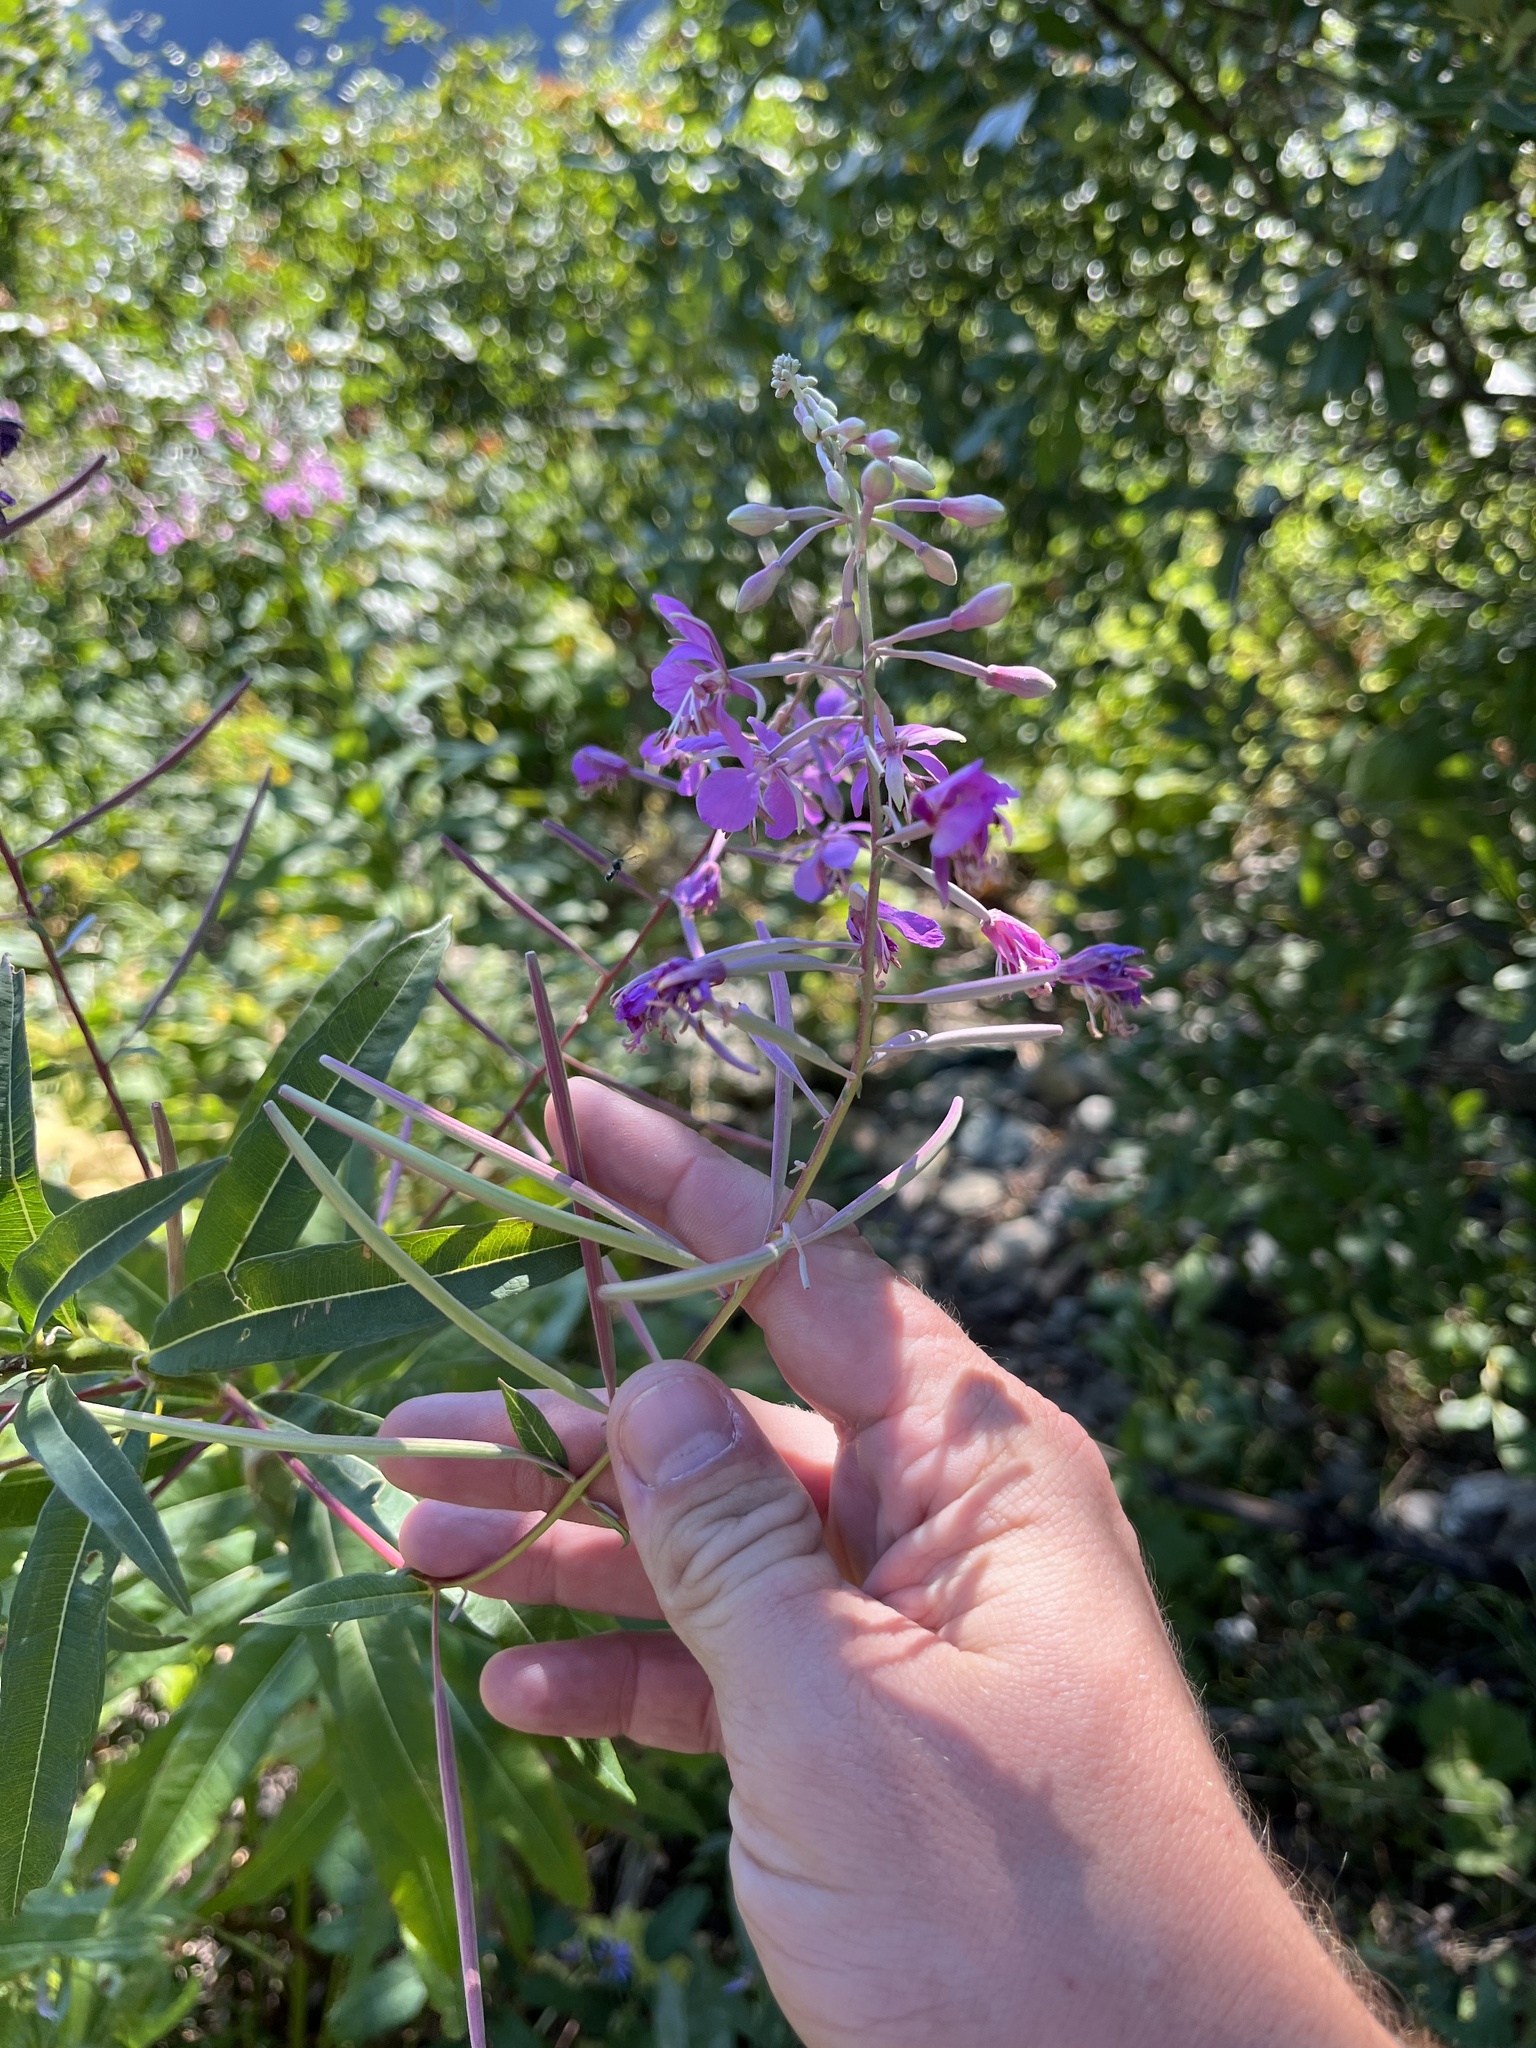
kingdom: Plantae
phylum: Tracheophyta
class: Magnoliopsida
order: Myrtales
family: Onagraceae
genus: Chamaenerion
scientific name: Chamaenerion angustifolium
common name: Fireweed
